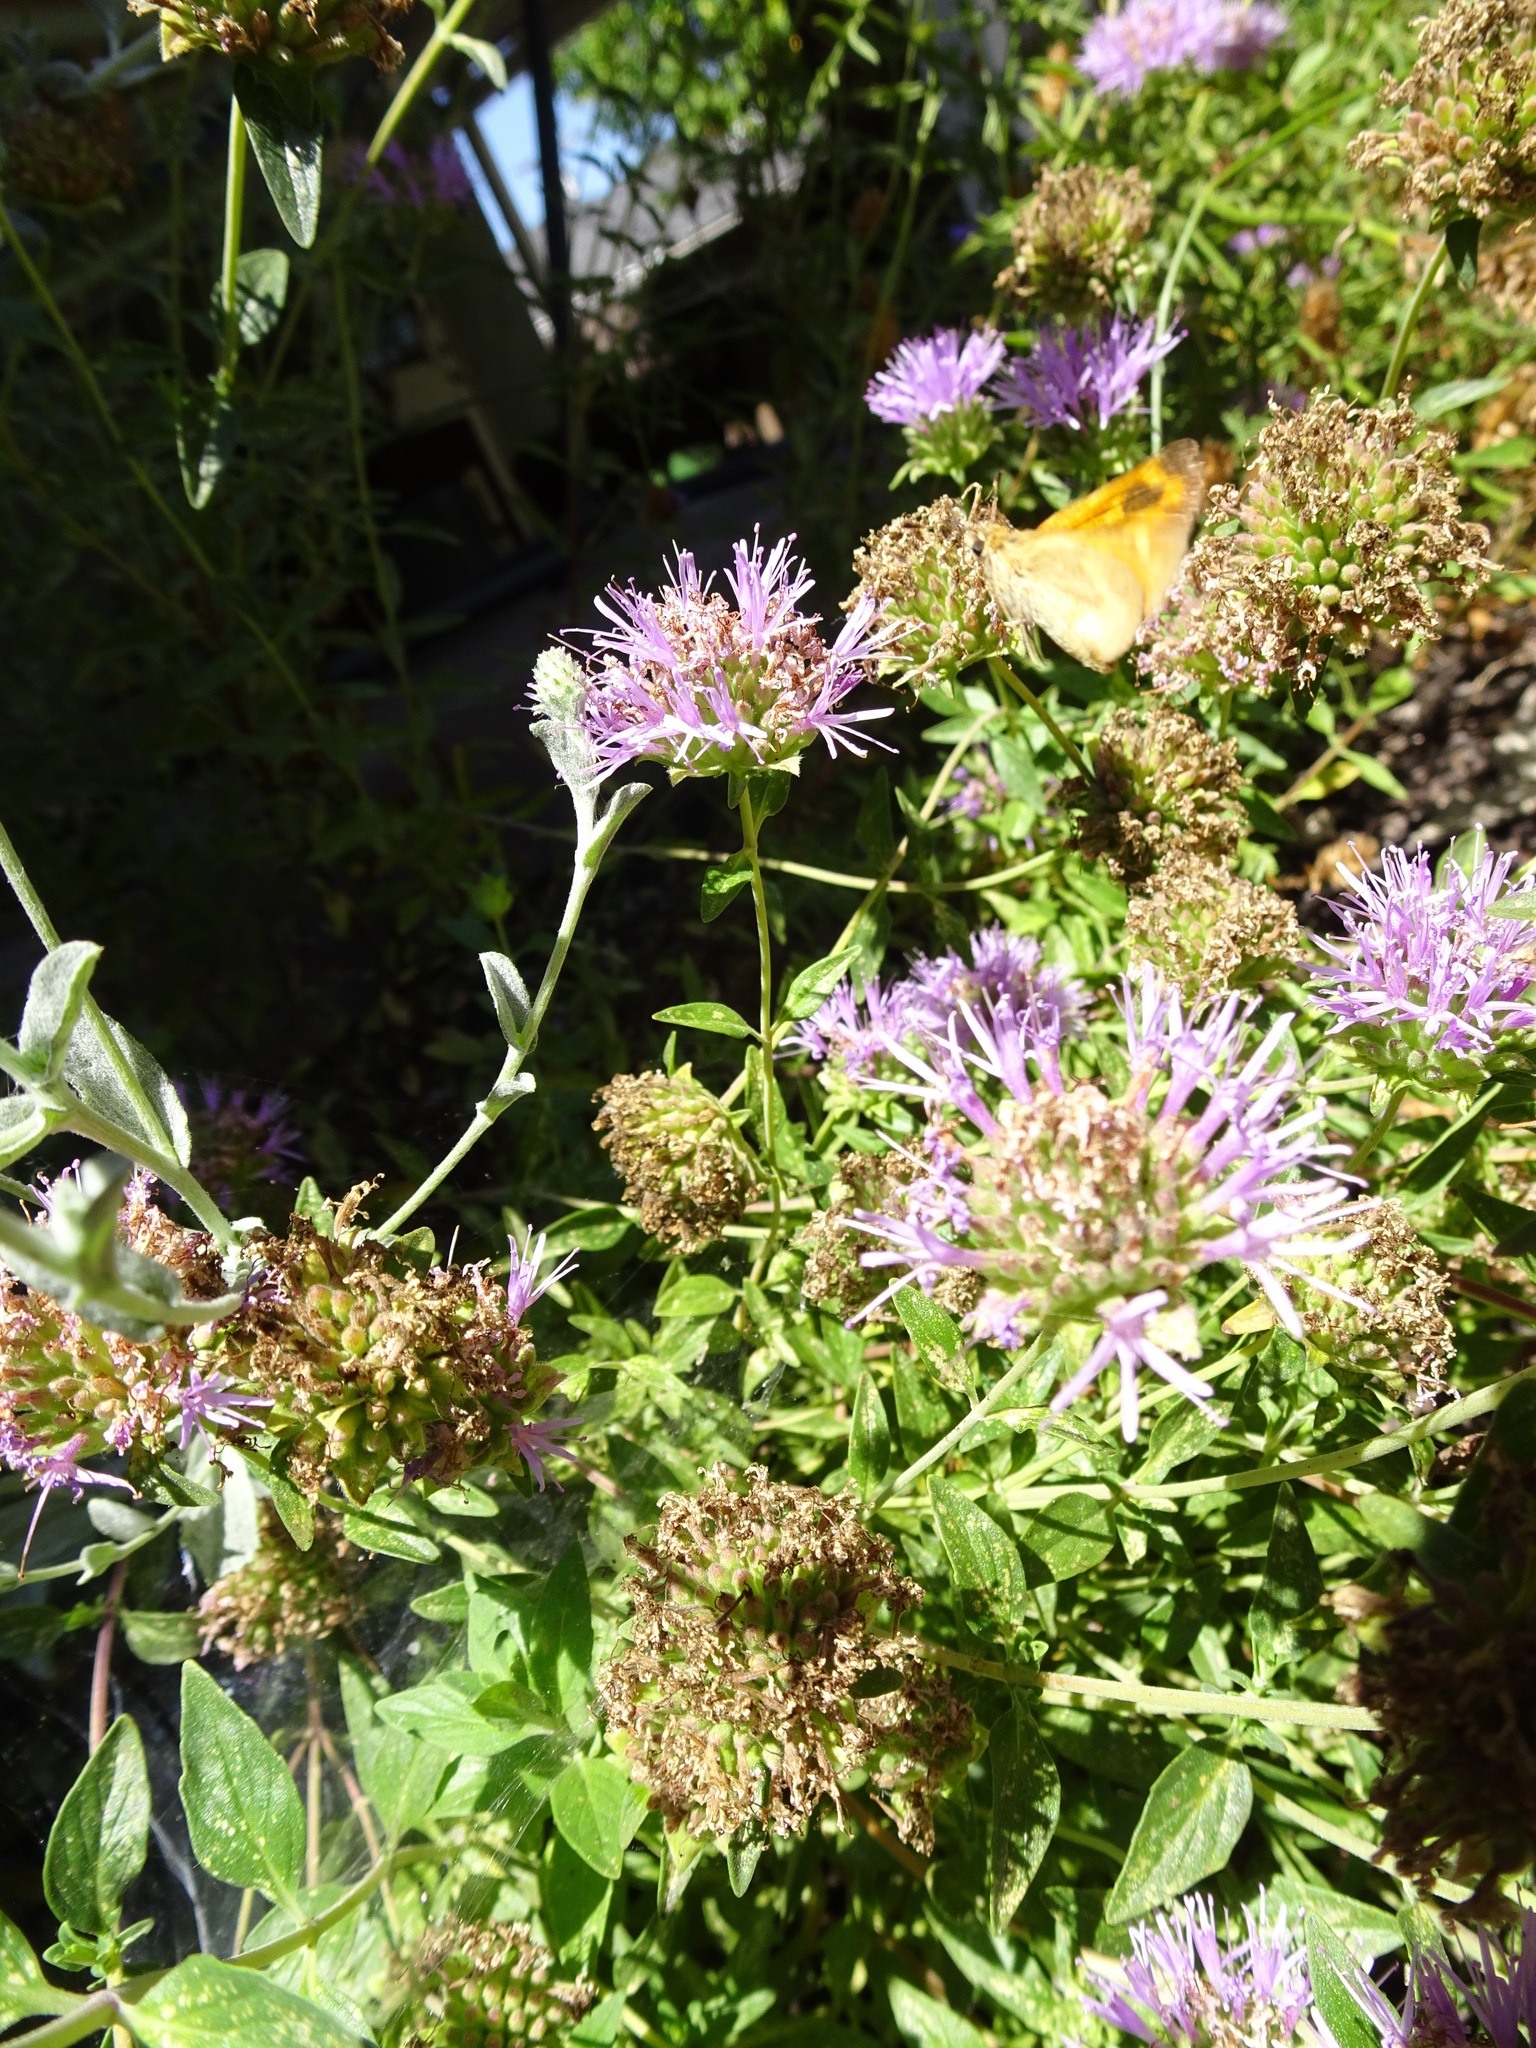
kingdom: Animalia
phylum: Arthropoda
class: Insecta
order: Lepidoptera
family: Hesperiidae
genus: Ochlodes
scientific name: Ochlodes sylvanoides
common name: Woodland skipper
